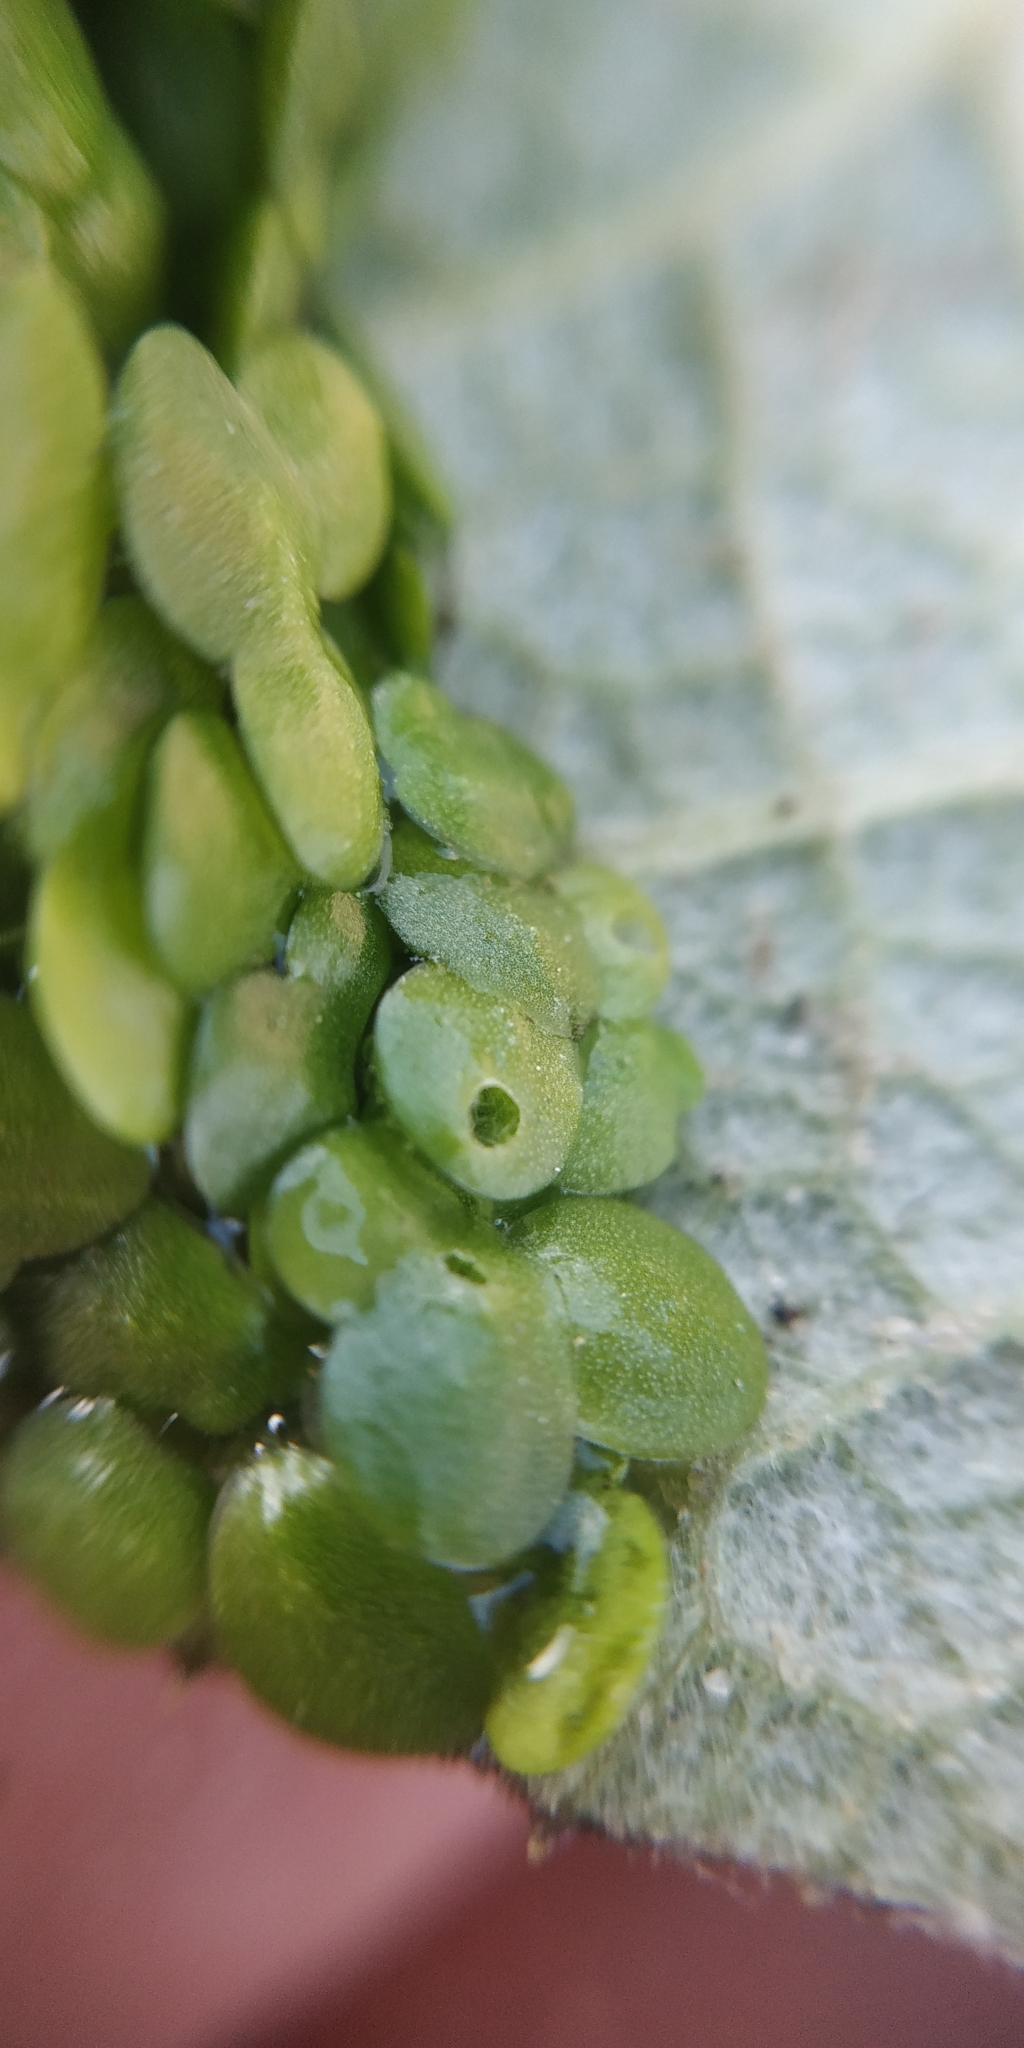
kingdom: Plantae
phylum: Tracheophyta
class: Liliopsida
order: Alismatales
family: Araceae
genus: Lemna
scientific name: Lemna gibba
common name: Fat duckweed
